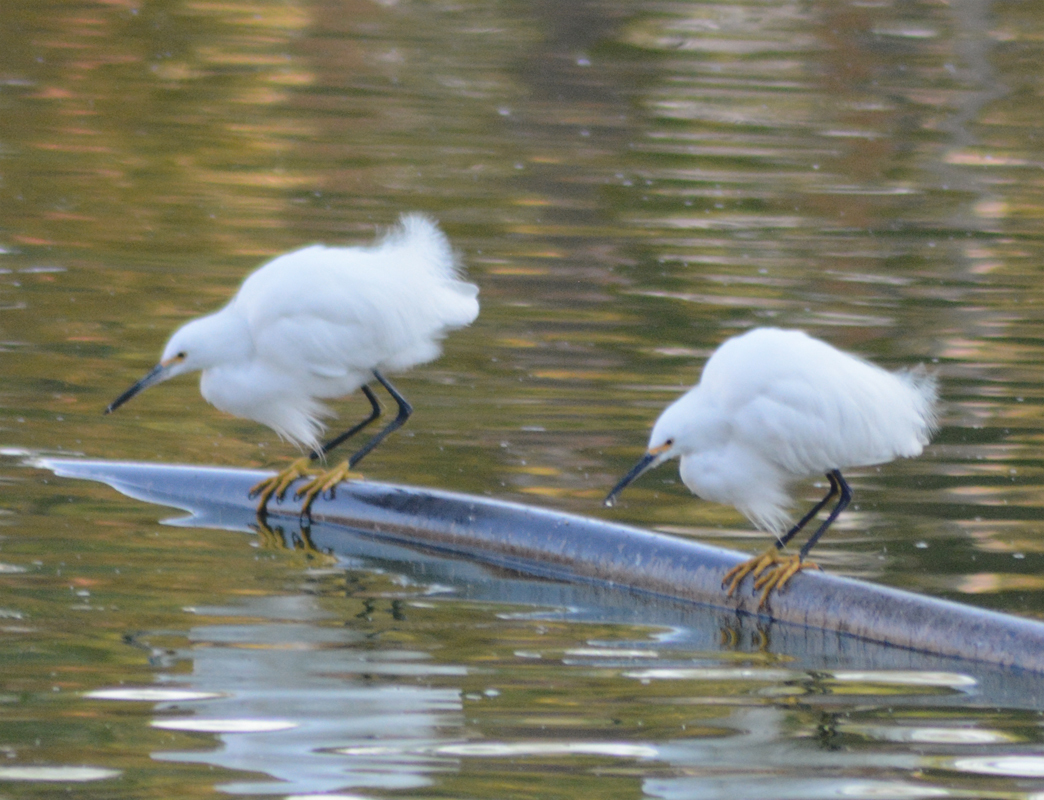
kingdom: Animalia
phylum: Chordata
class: Aves
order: Pelecaniformes
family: Ardeidae
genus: Egretta
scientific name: Egretta thula
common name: Snowy egret
